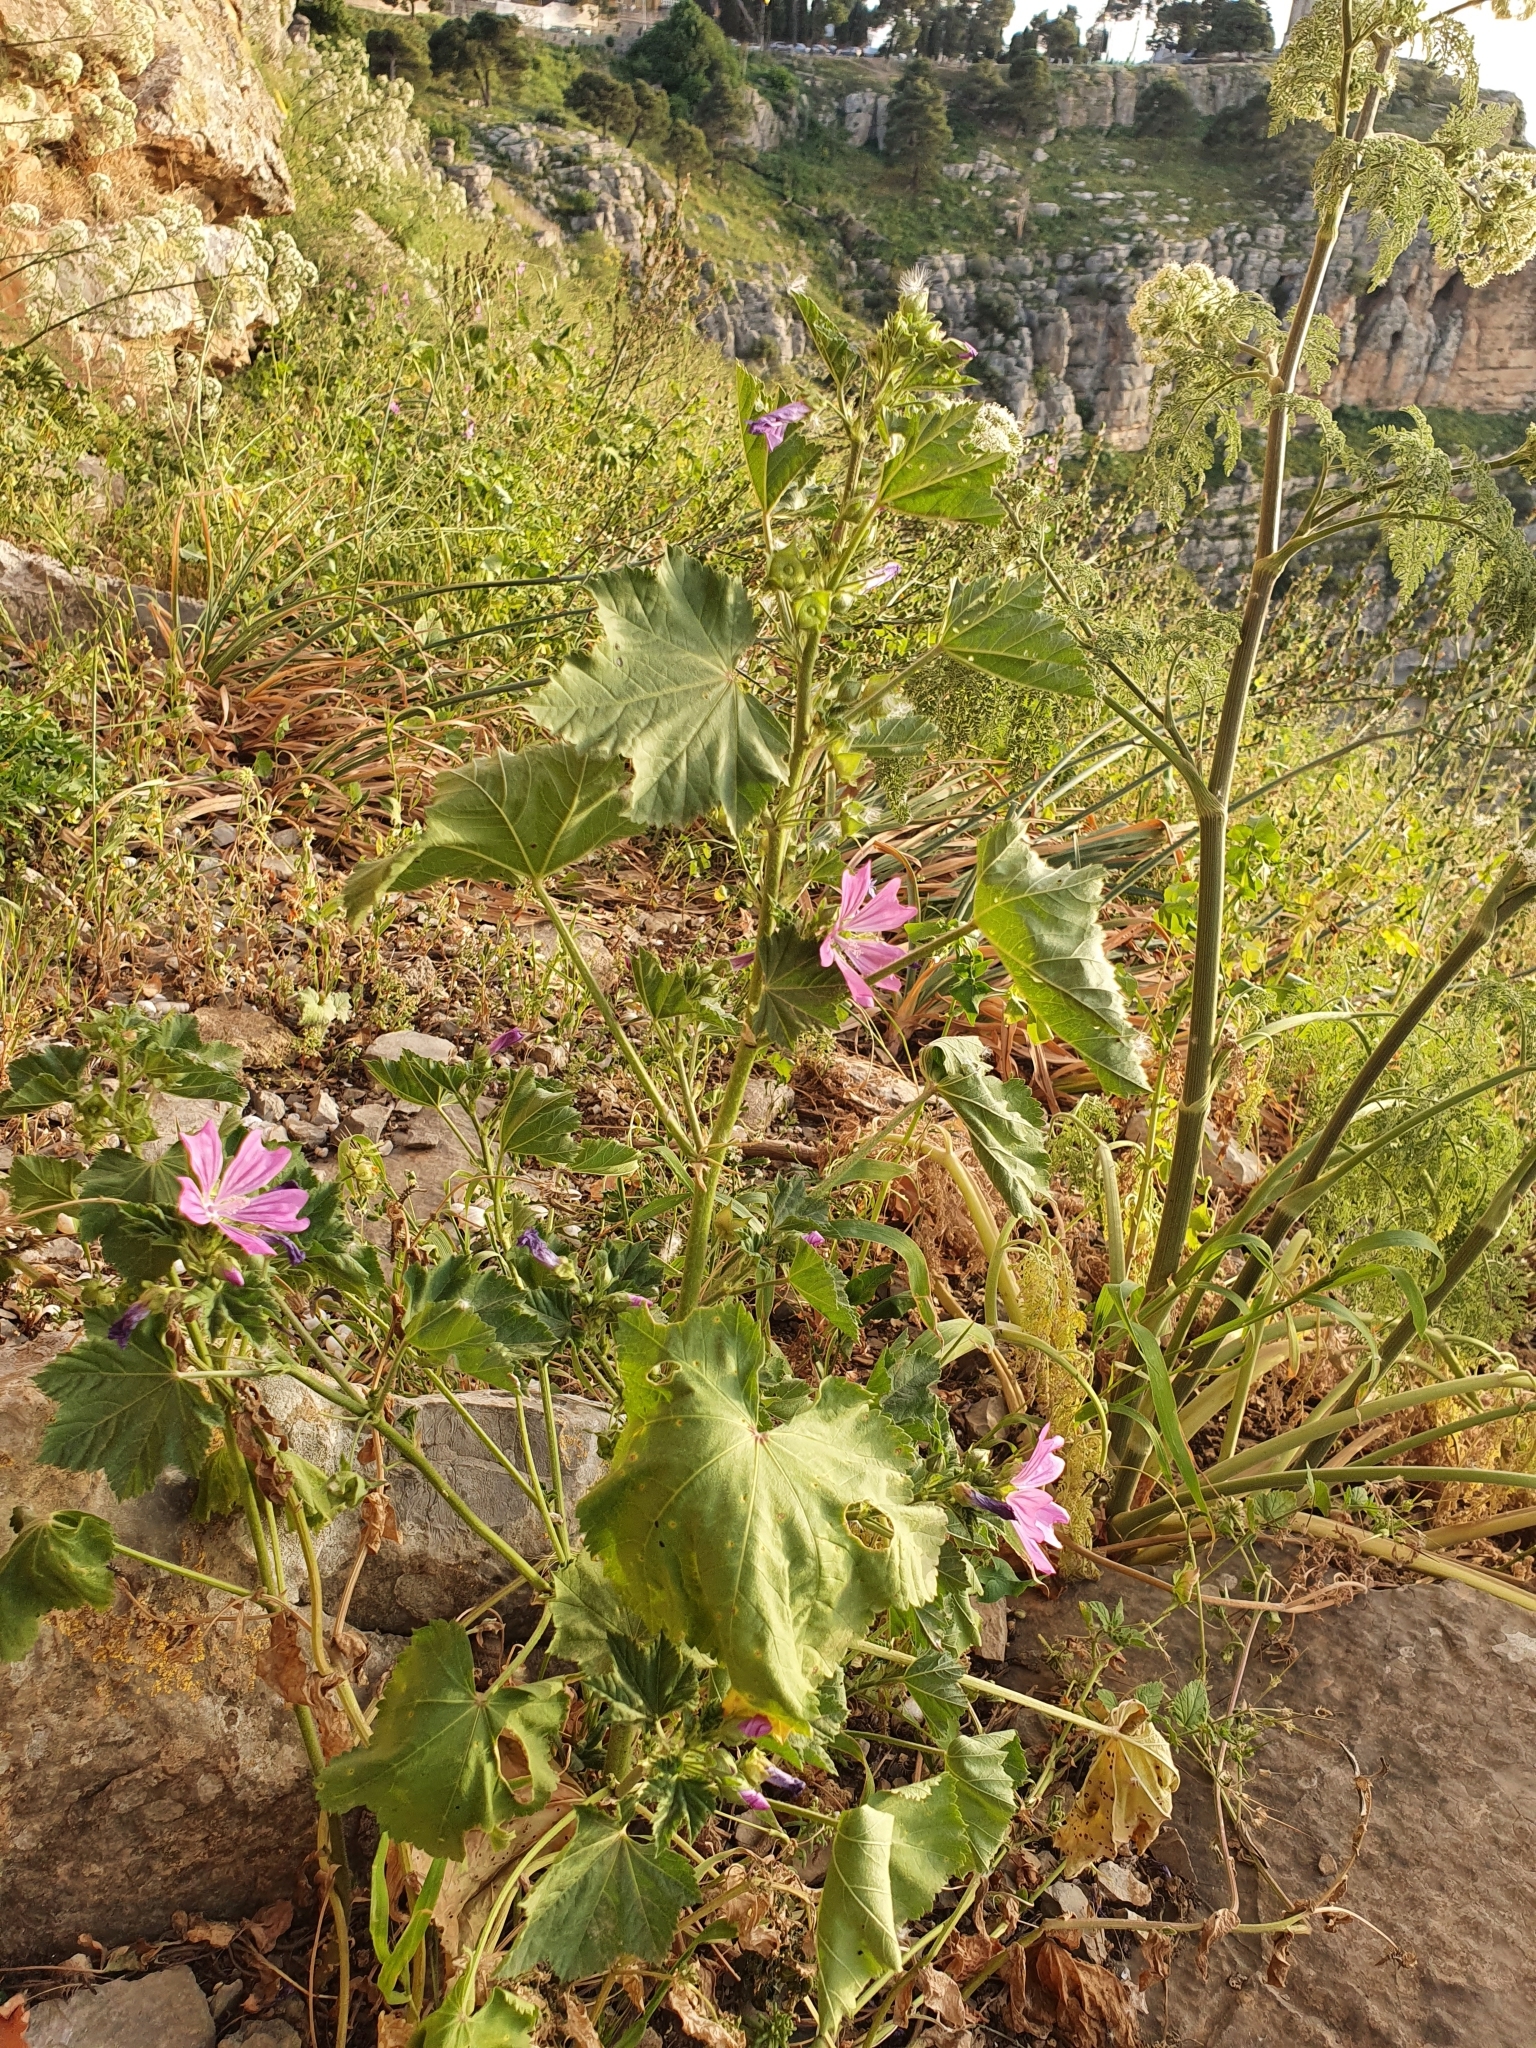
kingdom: Plantae
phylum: Tracheophyta
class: Magnoliopsida
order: Malvales
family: Malvaceae
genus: Malva
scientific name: Malva sylvestris
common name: Common mallow
